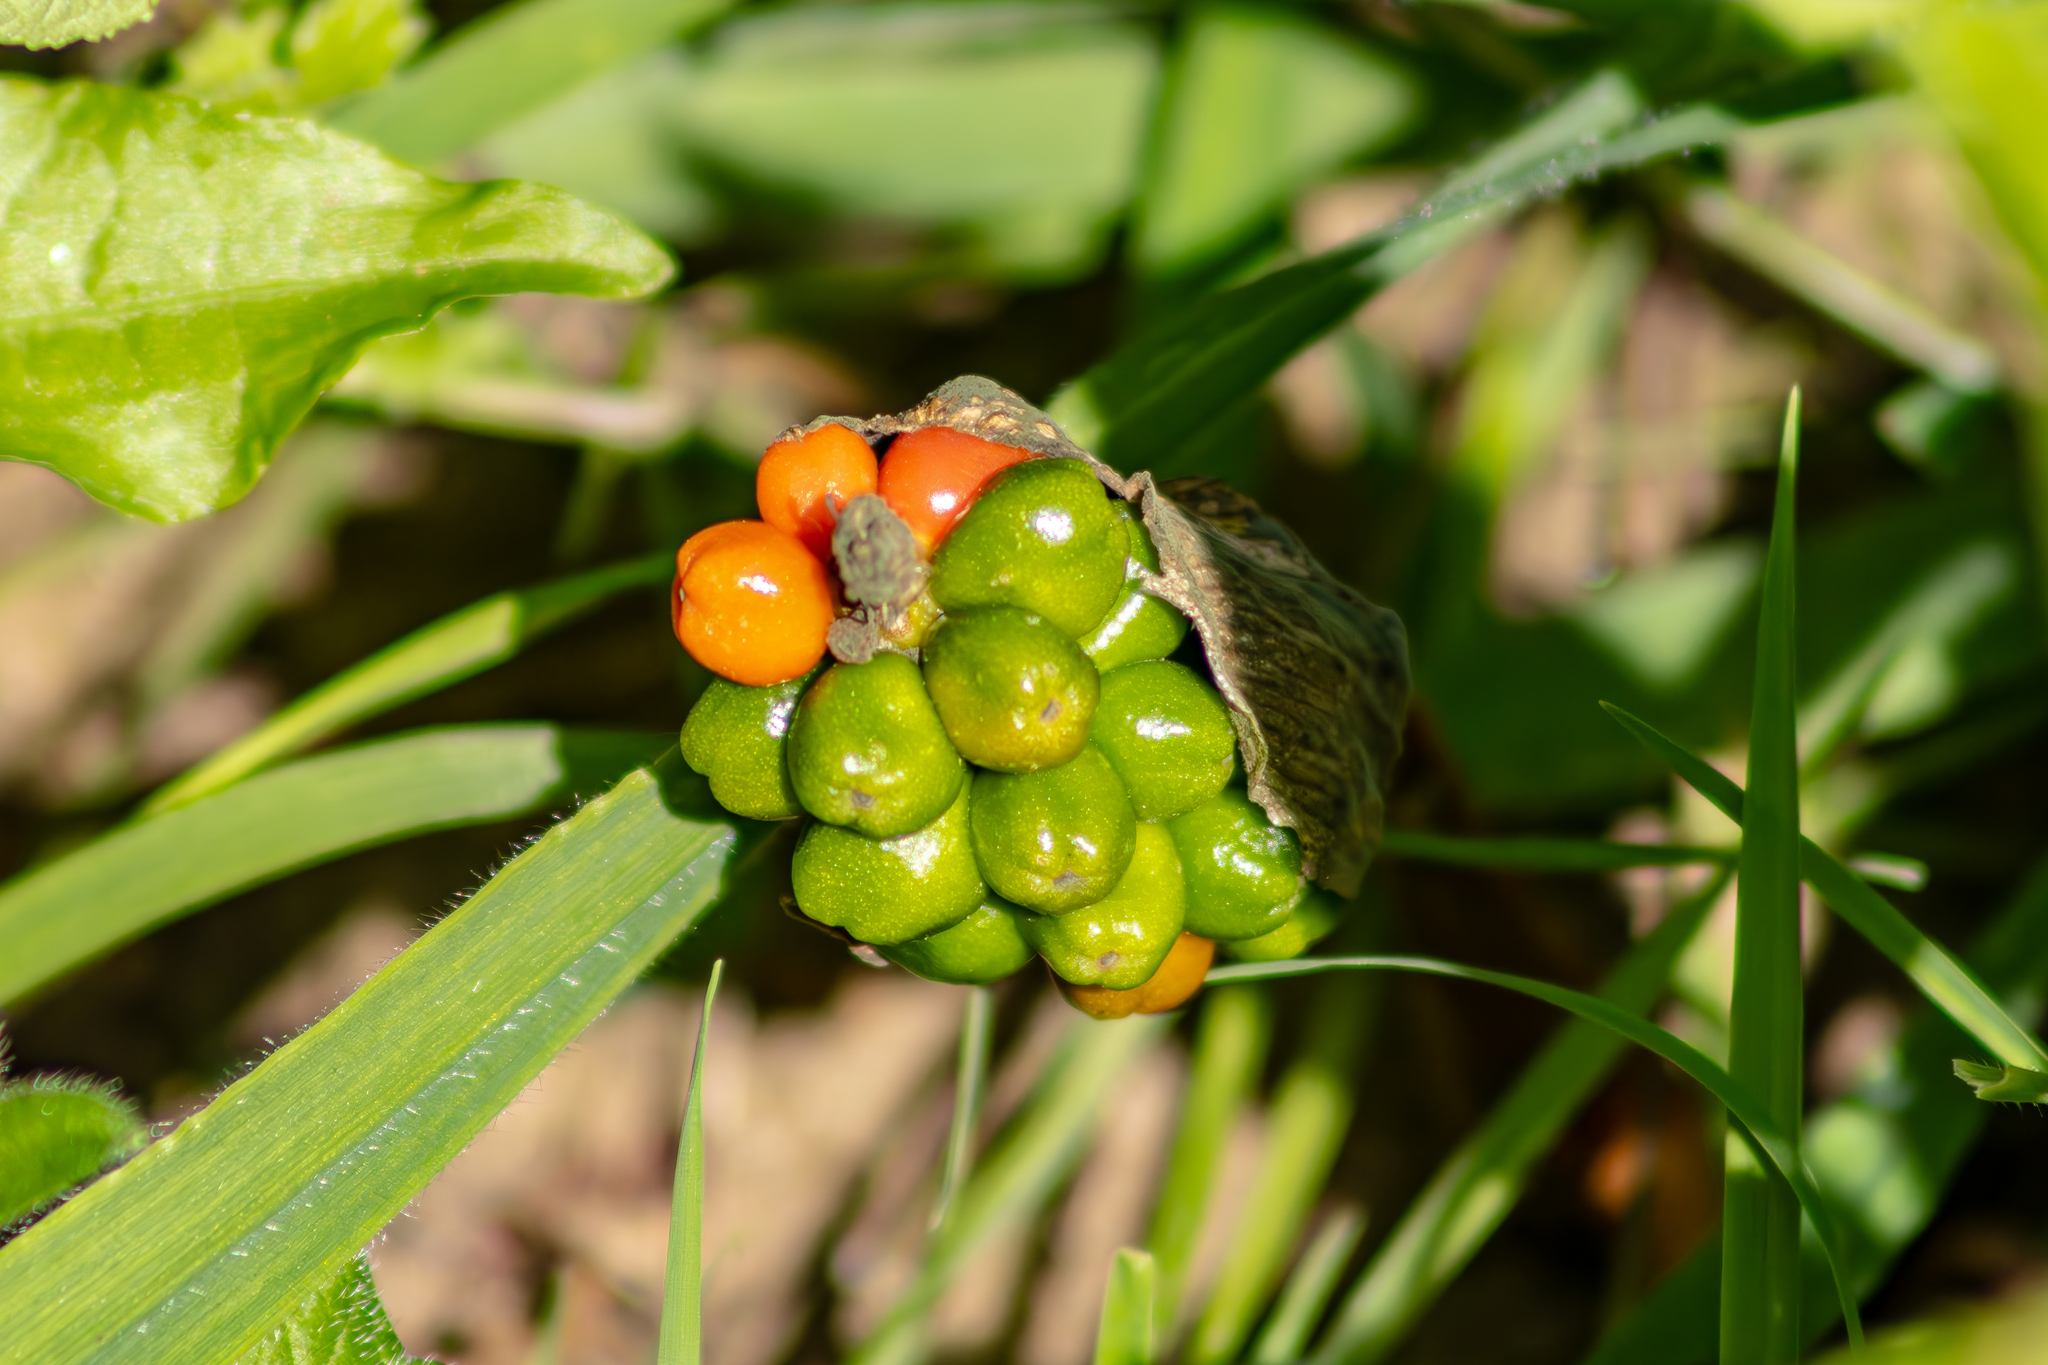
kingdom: Plantae
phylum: Tracheophyta
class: Liliopsida
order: Alismatales
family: Araceae
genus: Arum
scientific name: Arum maculatum
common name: Lords-and-ladies
